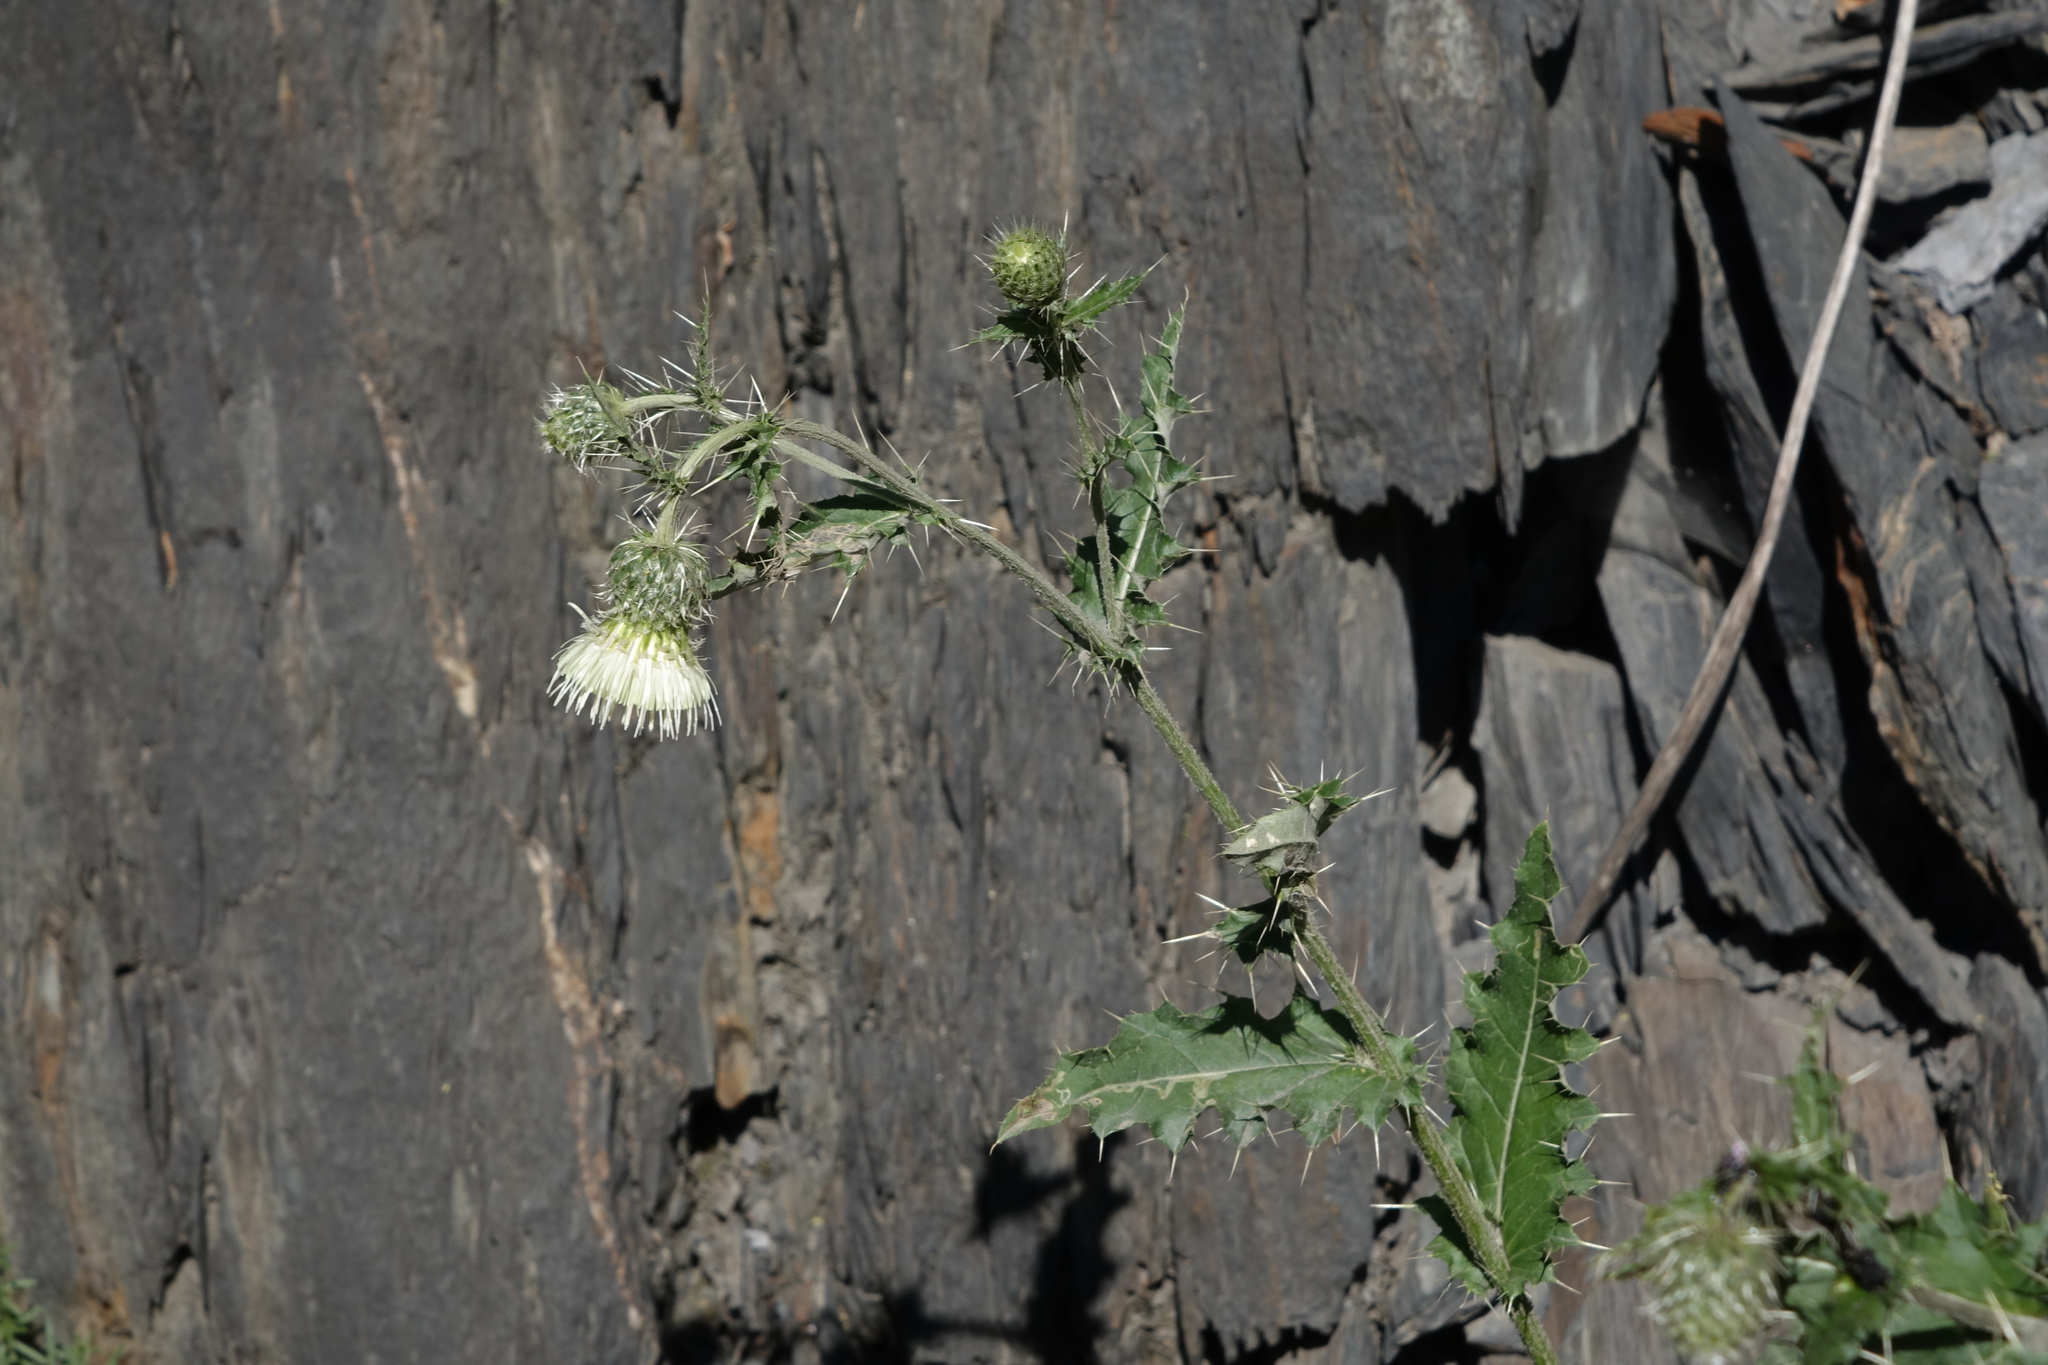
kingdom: Plantae
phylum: Tracheophyta
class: Magnoliopsida
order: Asterales
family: Asteraceae
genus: Cirsium
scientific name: Cirsium echinus
